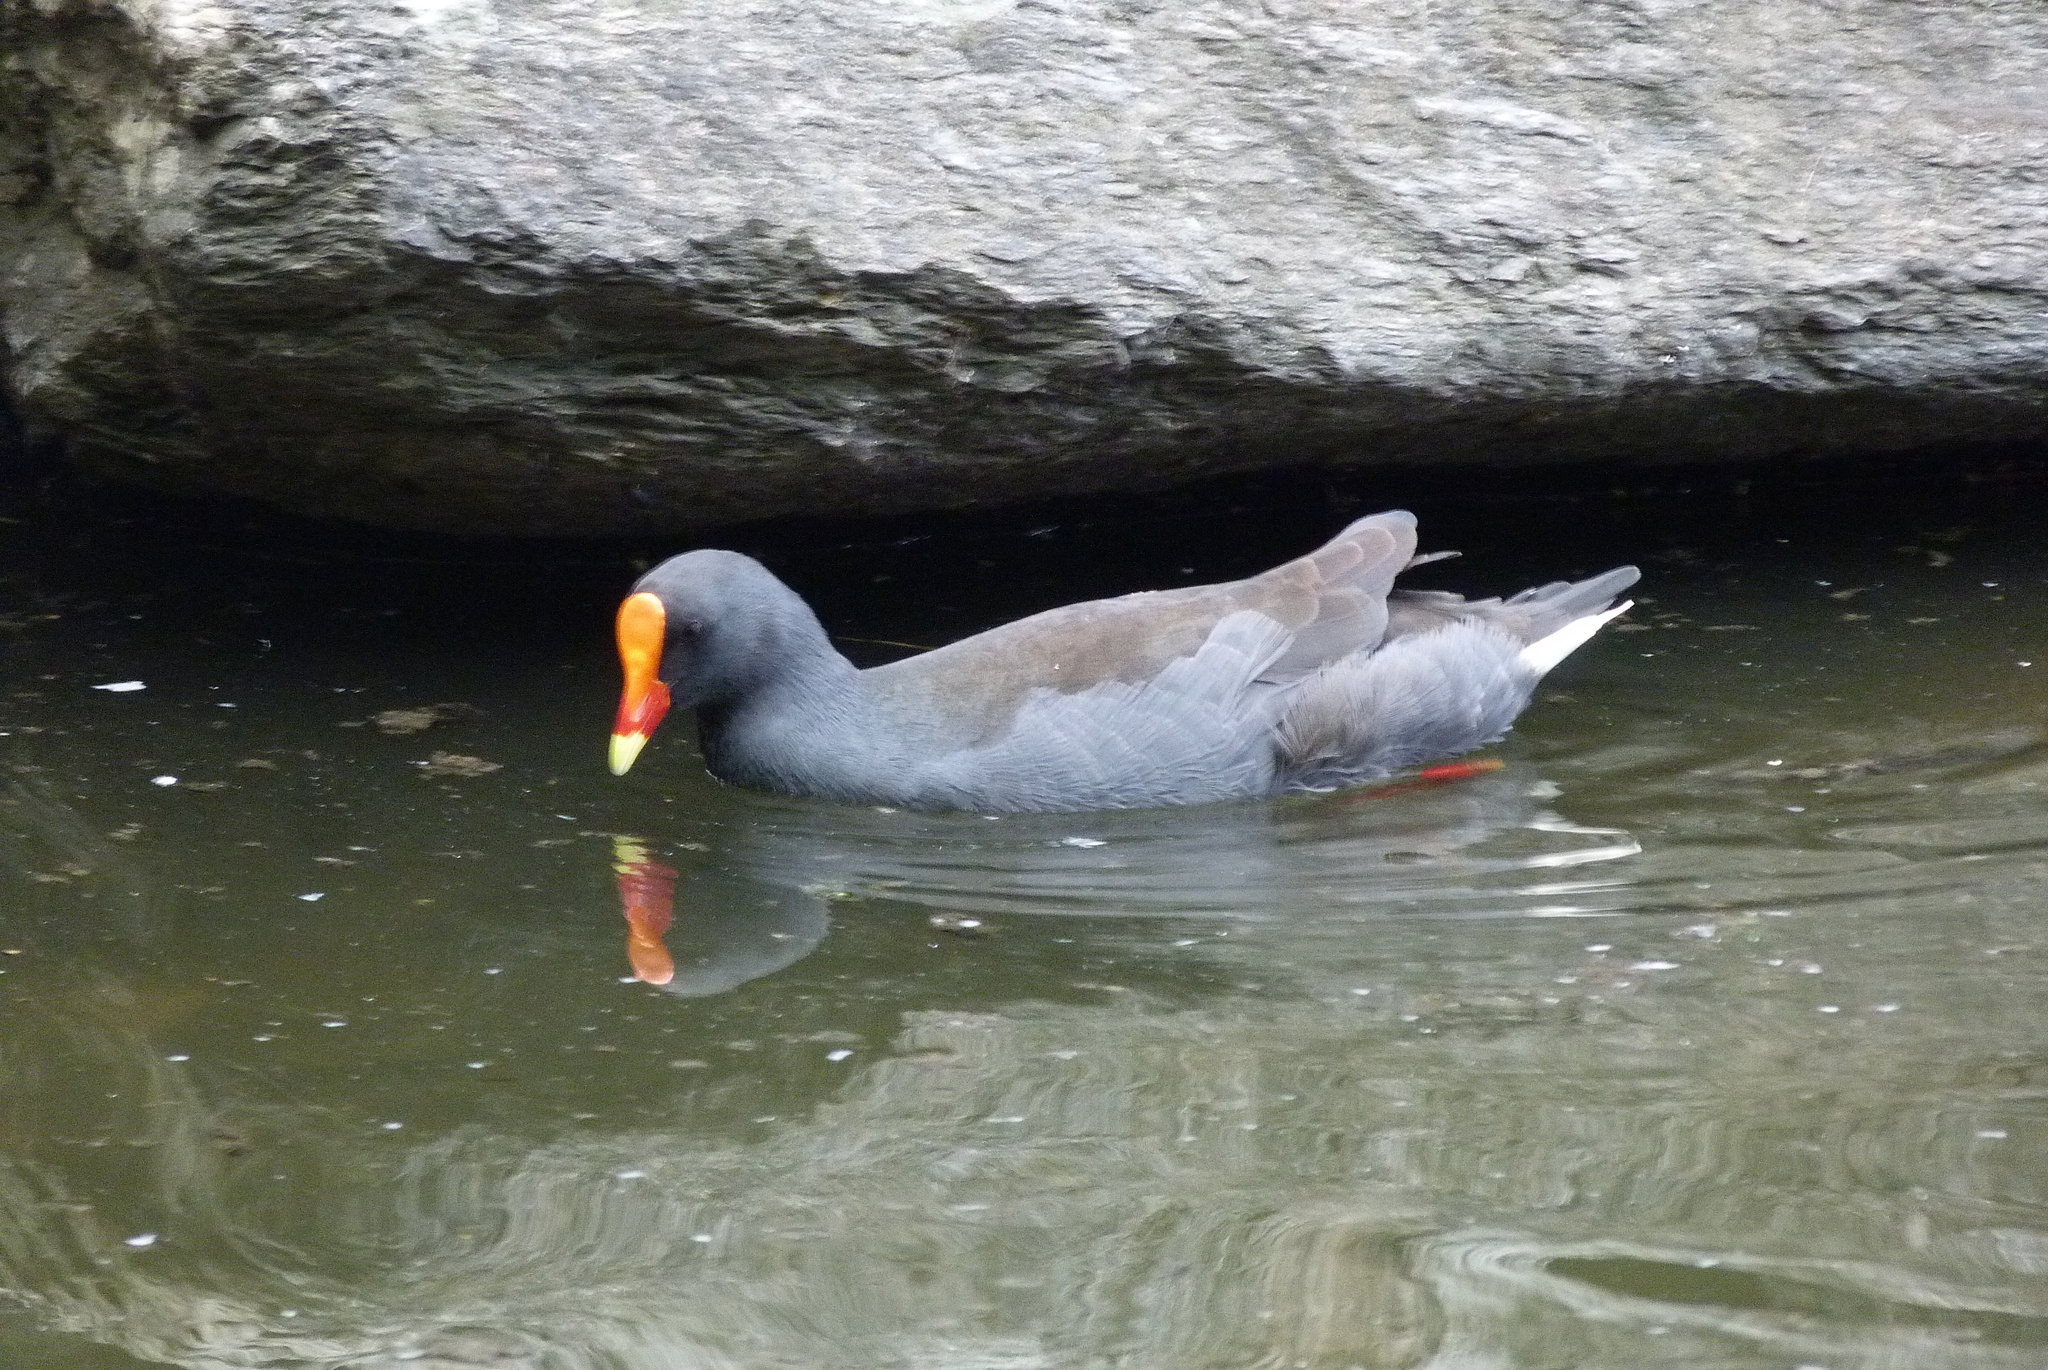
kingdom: Animalia
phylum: Chordata
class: Aves
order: Gruiformes
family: Rallidae
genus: Gallinula
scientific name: Gallinula tenebrosa
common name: Dusky moorhen
